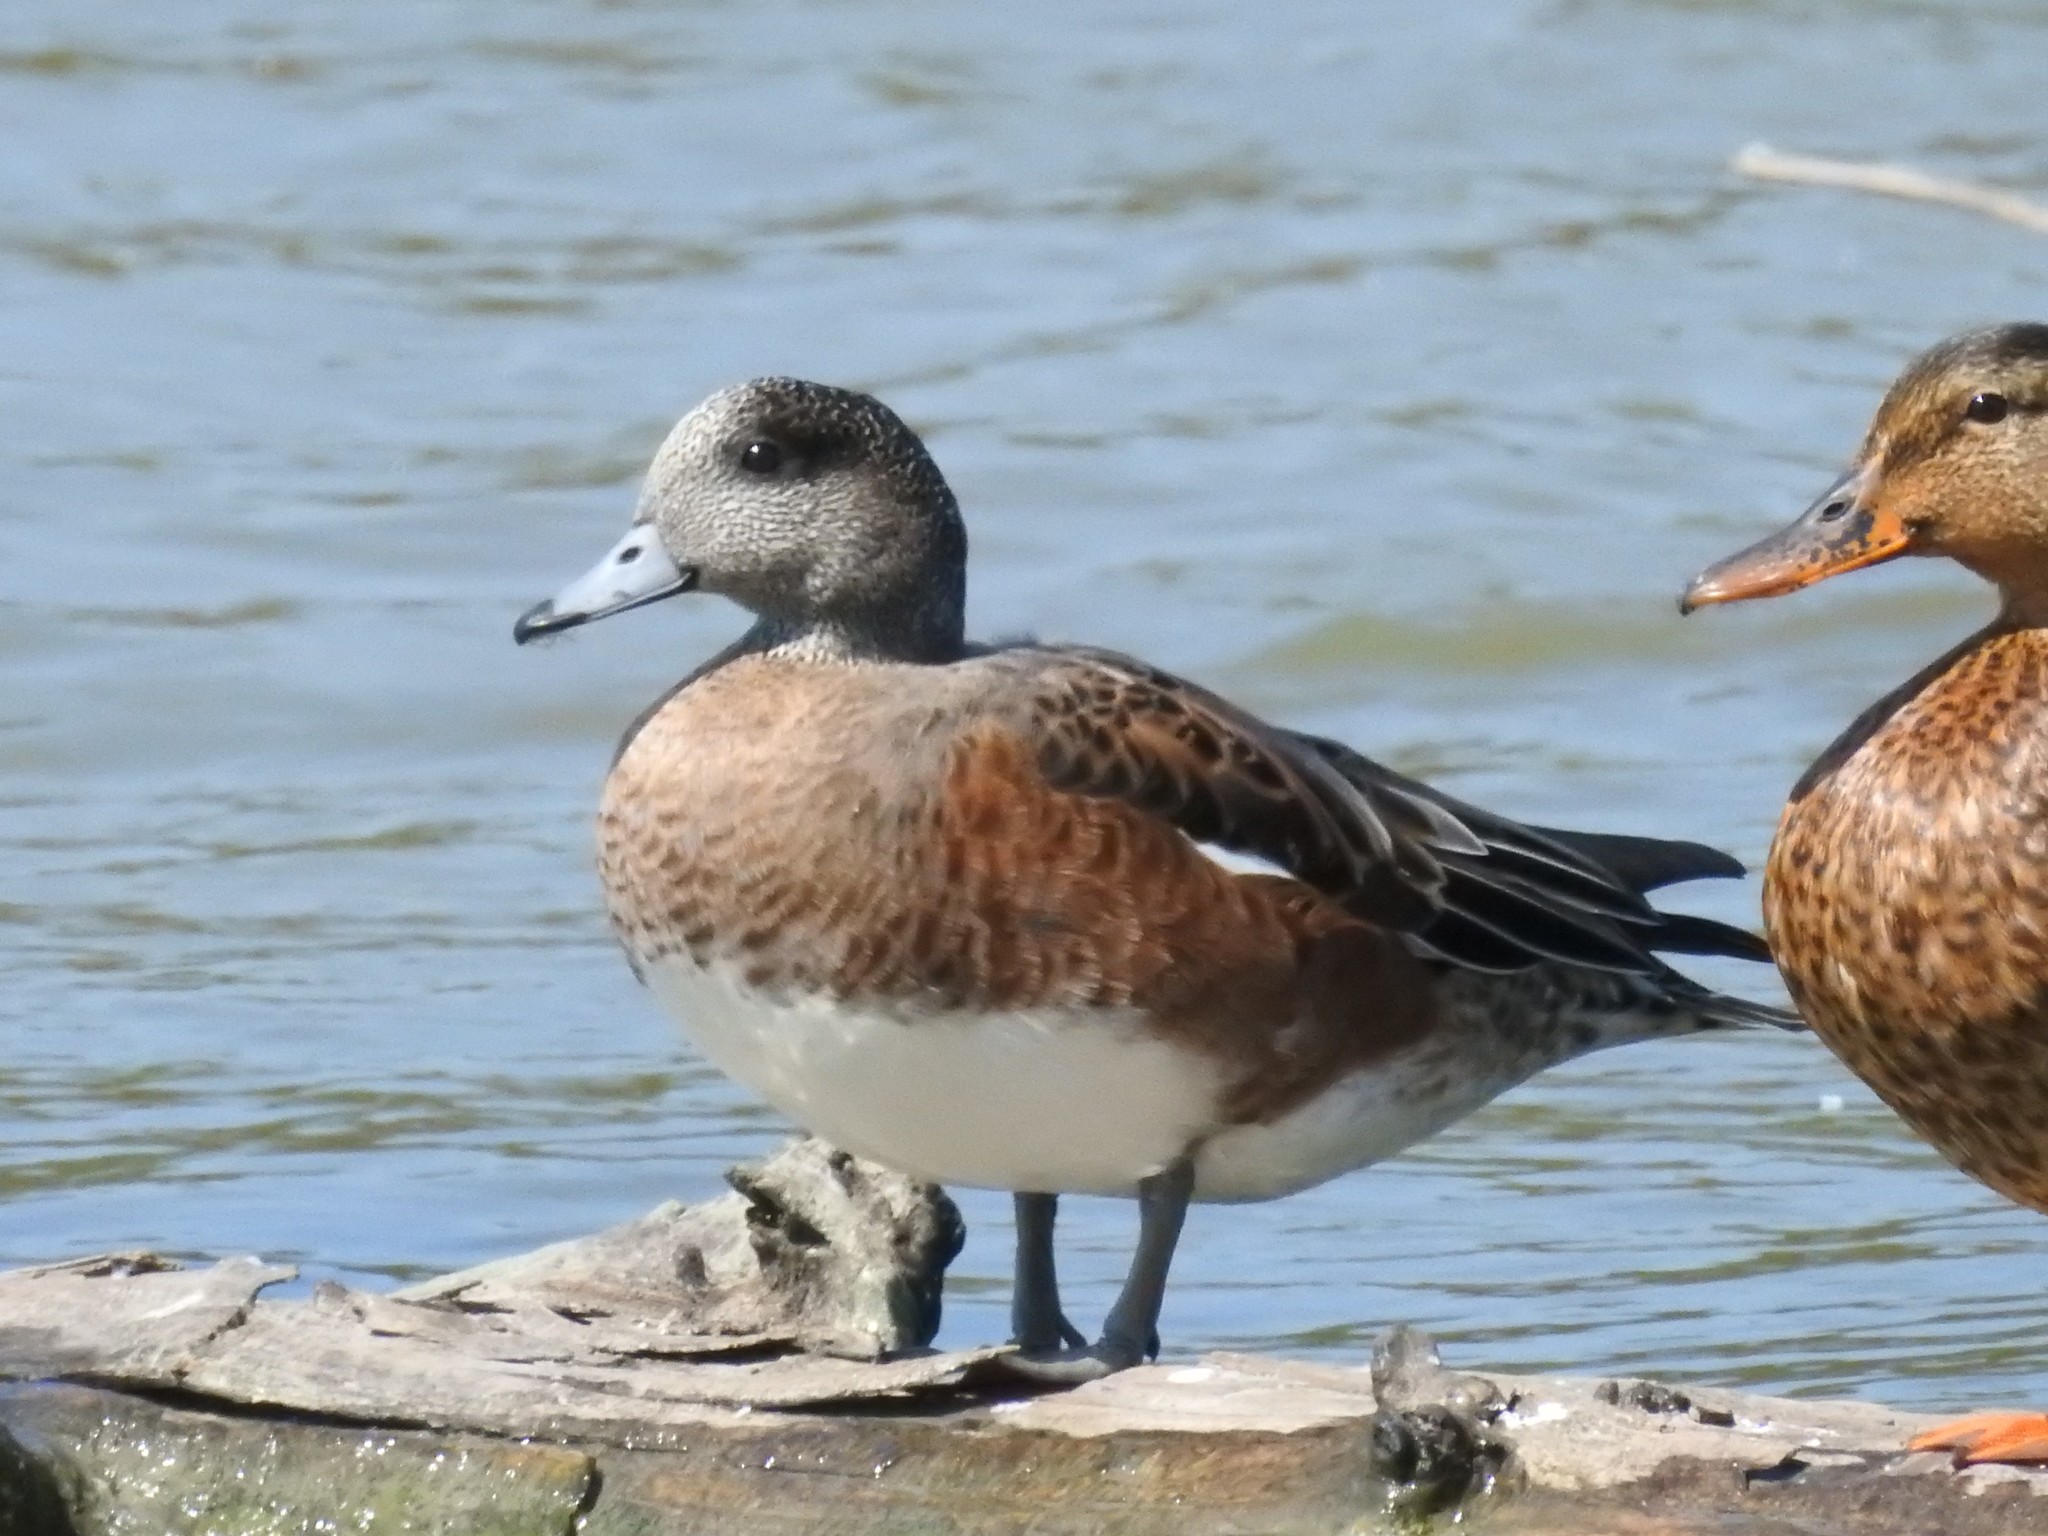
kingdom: Animalia
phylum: Chordata
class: Aves
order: Anseriformes
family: Anatidae
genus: Mareca
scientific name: Mareca americana
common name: American wigeon
